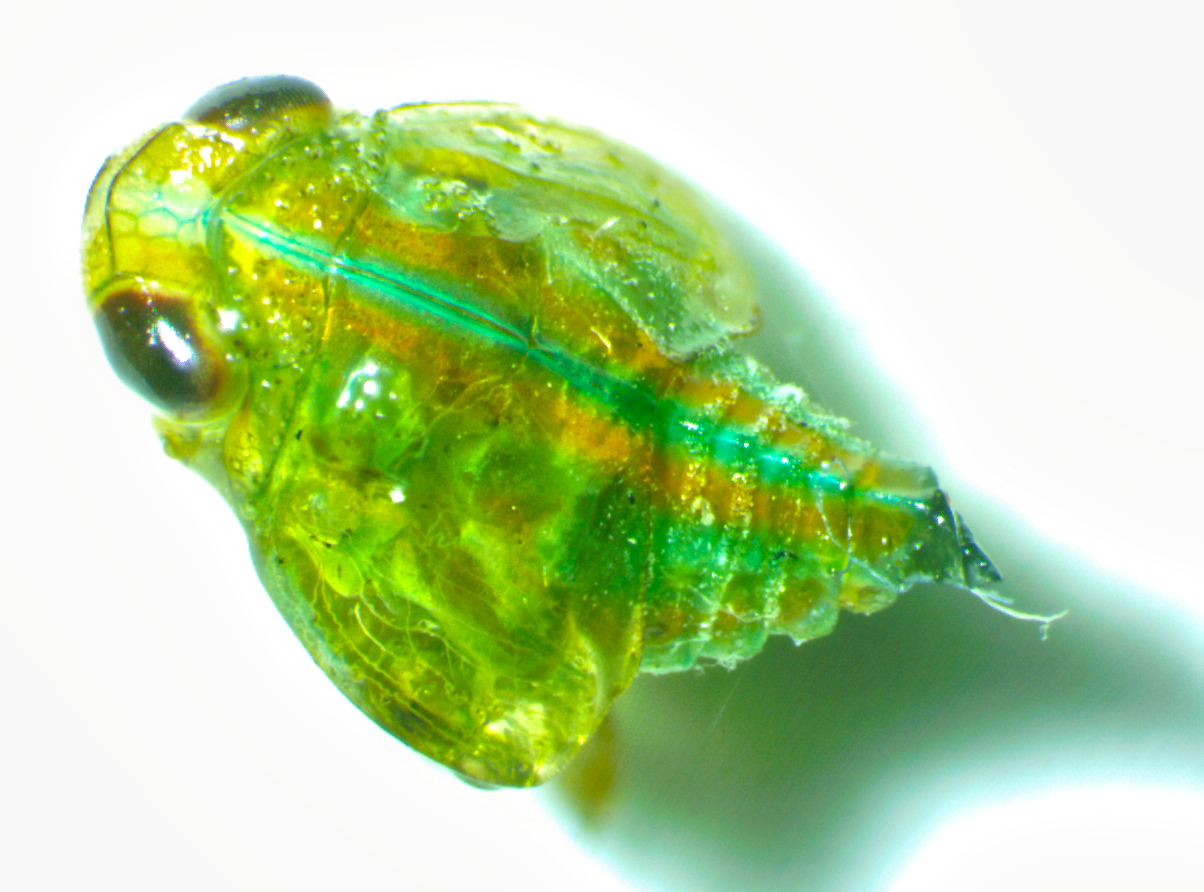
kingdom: Animalia
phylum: Arthropoda
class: Insecta
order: Hemiptera
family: Issidae
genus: Aplos
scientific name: Aplos simplex
